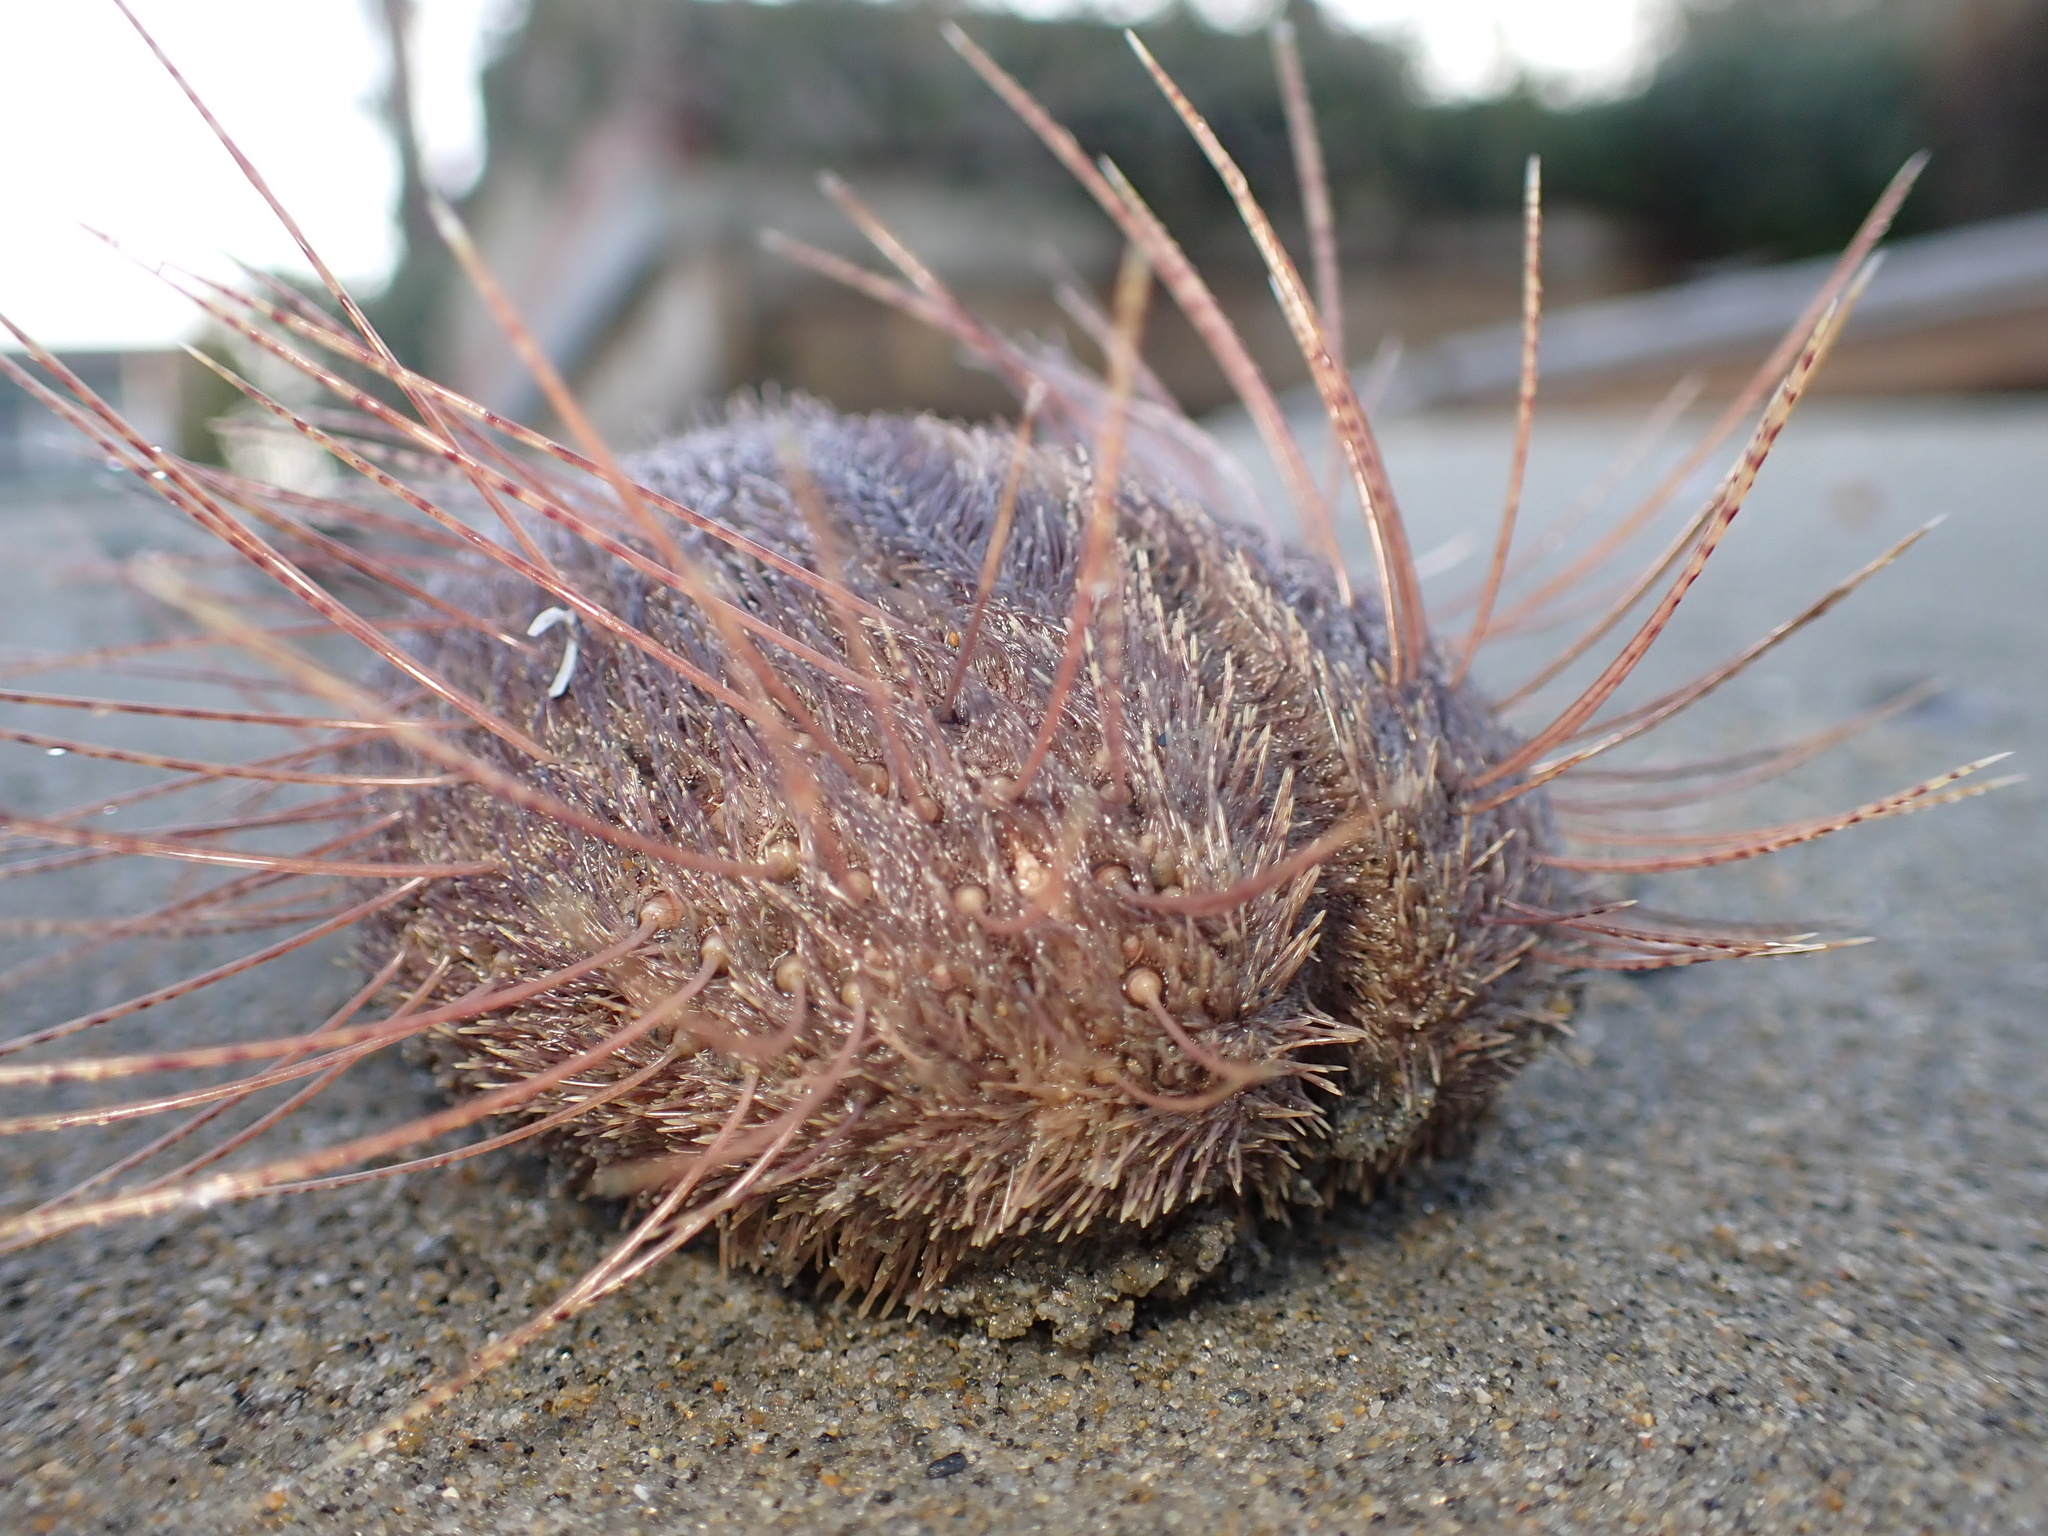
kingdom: Animalia
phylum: Echinodermata
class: Echinoidea
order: Spatangoida
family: Loveniidae
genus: Lovenia
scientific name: Lovenia cordiformis
